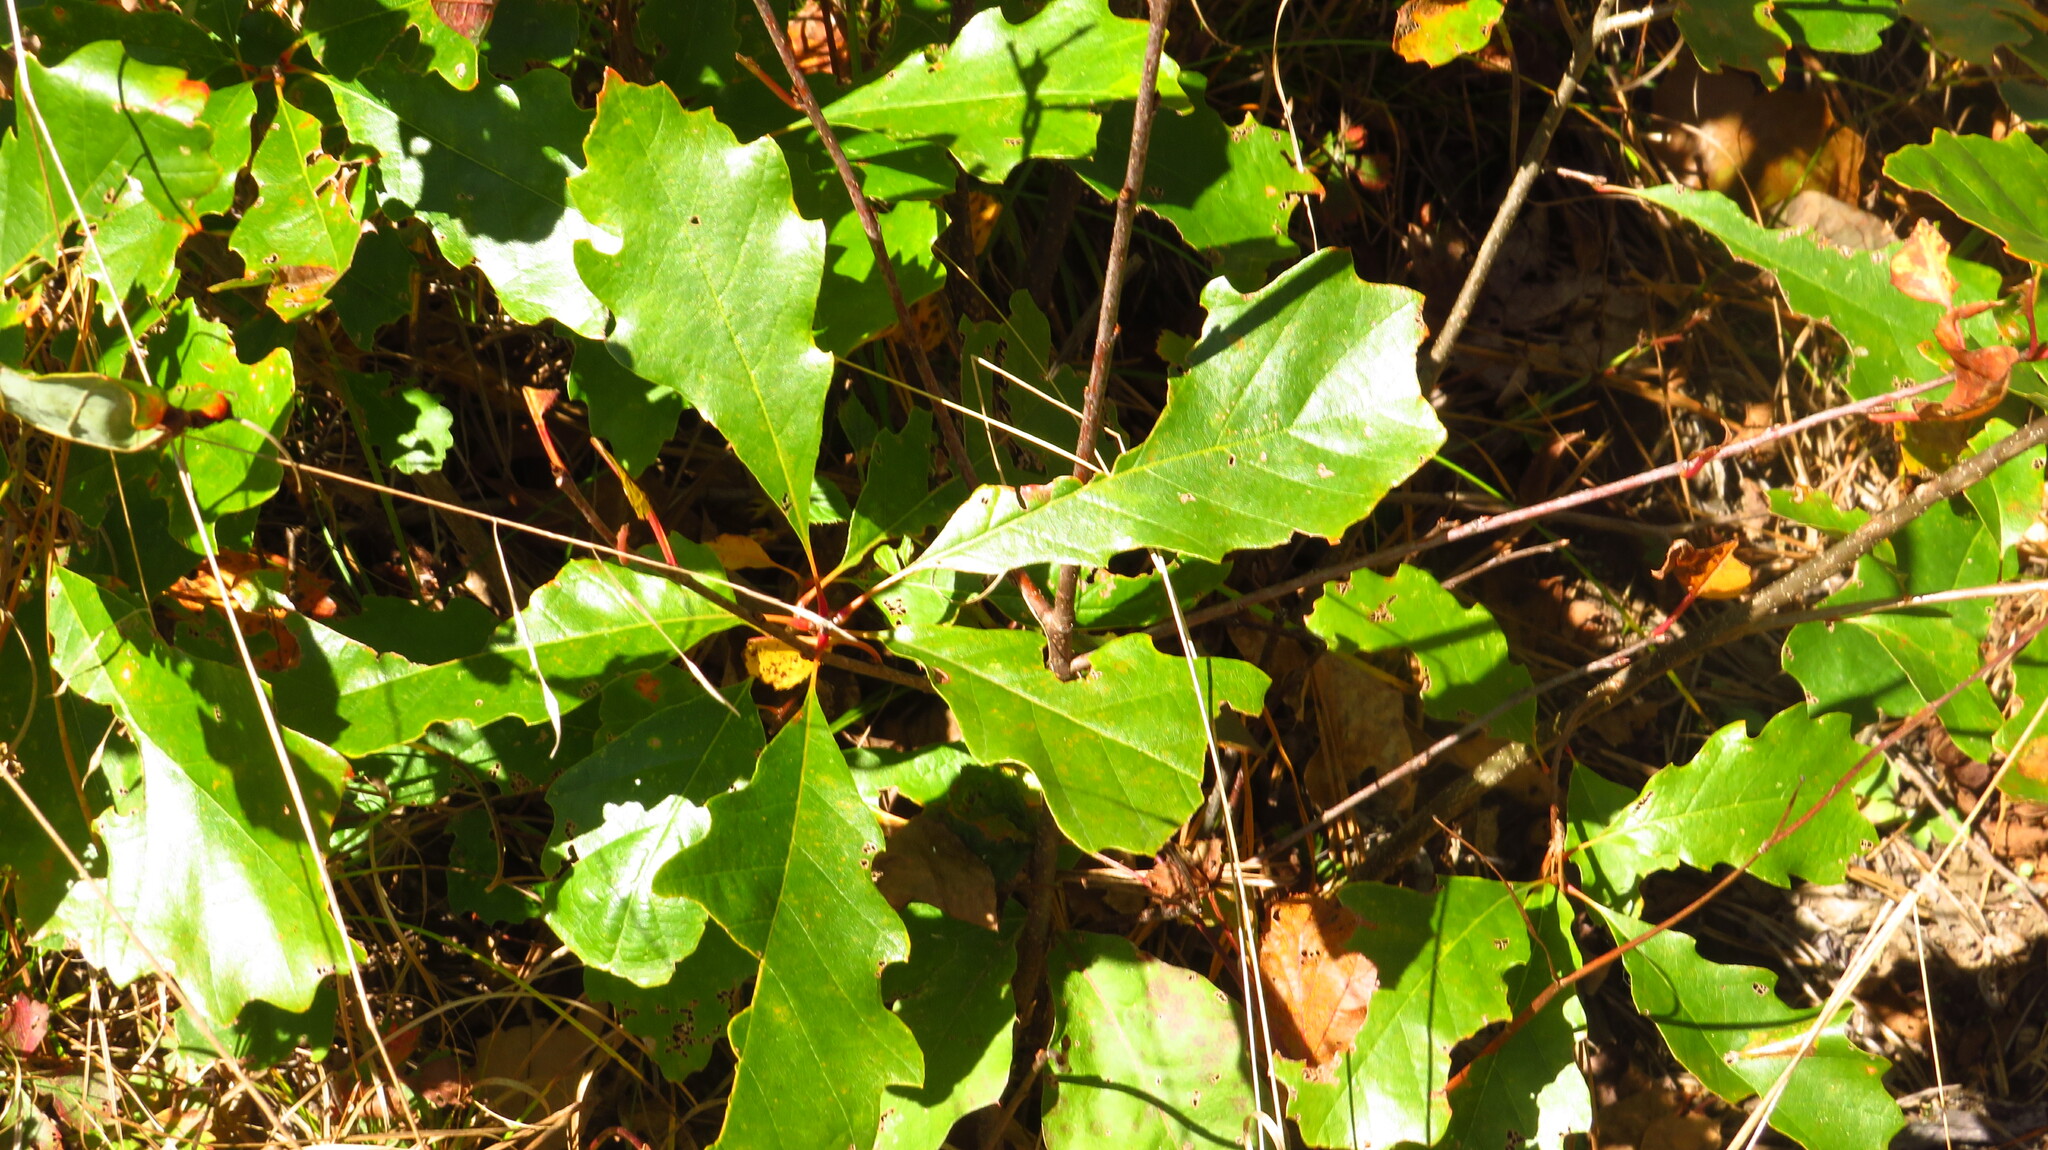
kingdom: Plantae
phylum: Tracheophyta
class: Magnoliopsida
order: Fagales
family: Fagaceae
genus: Quercus
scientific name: Quercus prinoides
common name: Dwarf chinkapin oak
